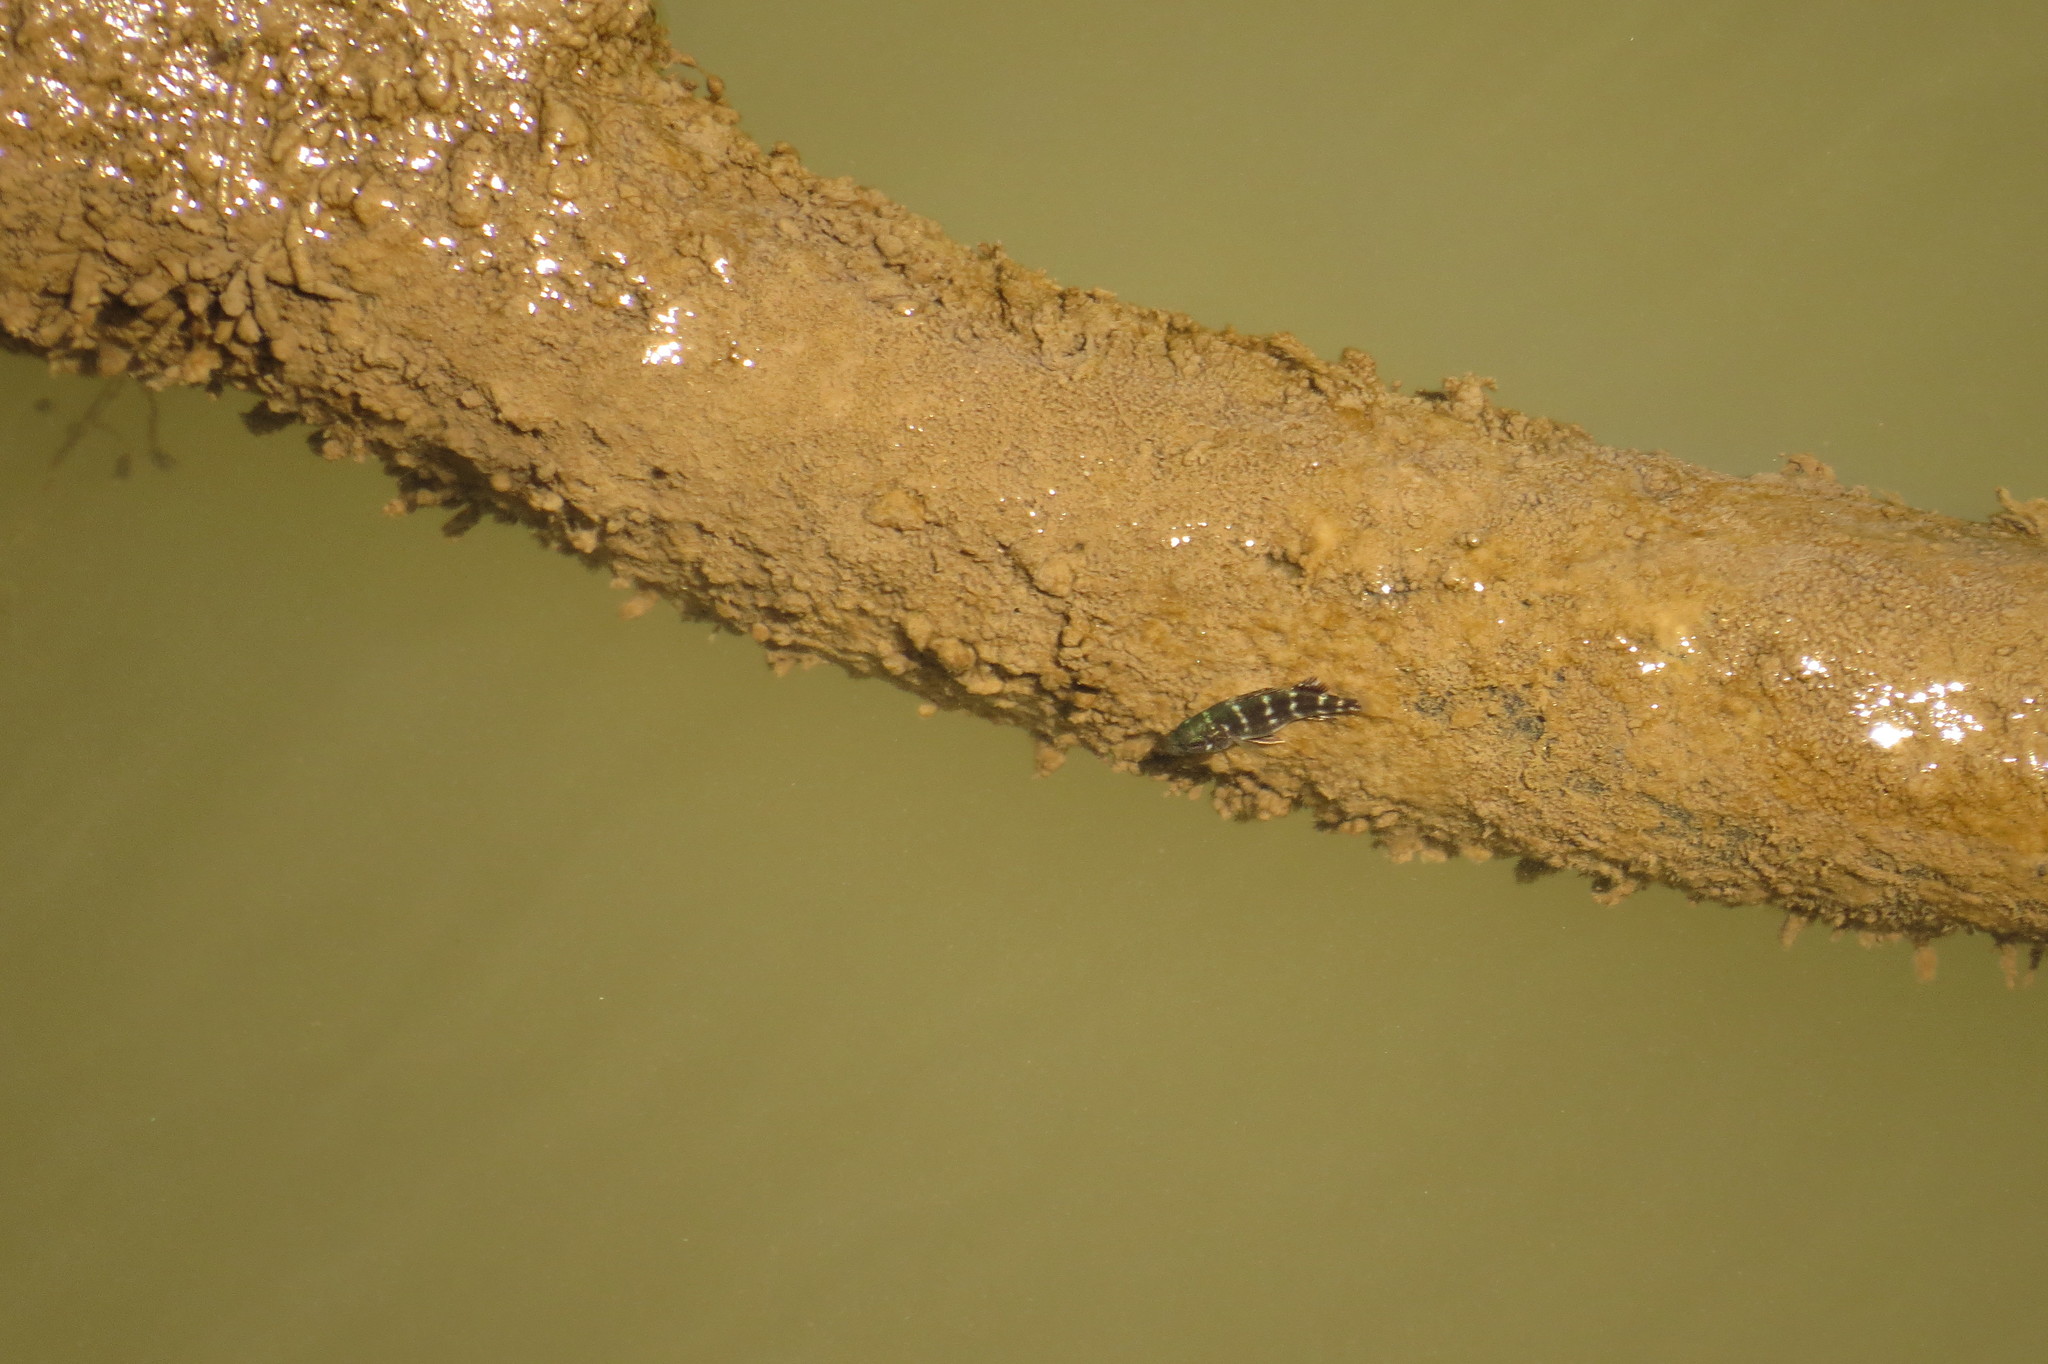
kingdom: Animalia
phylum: Chordata
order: Perciformes
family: Terapontidae
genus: Terapon
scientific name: Terapon theraps
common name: Largescaled therapon
